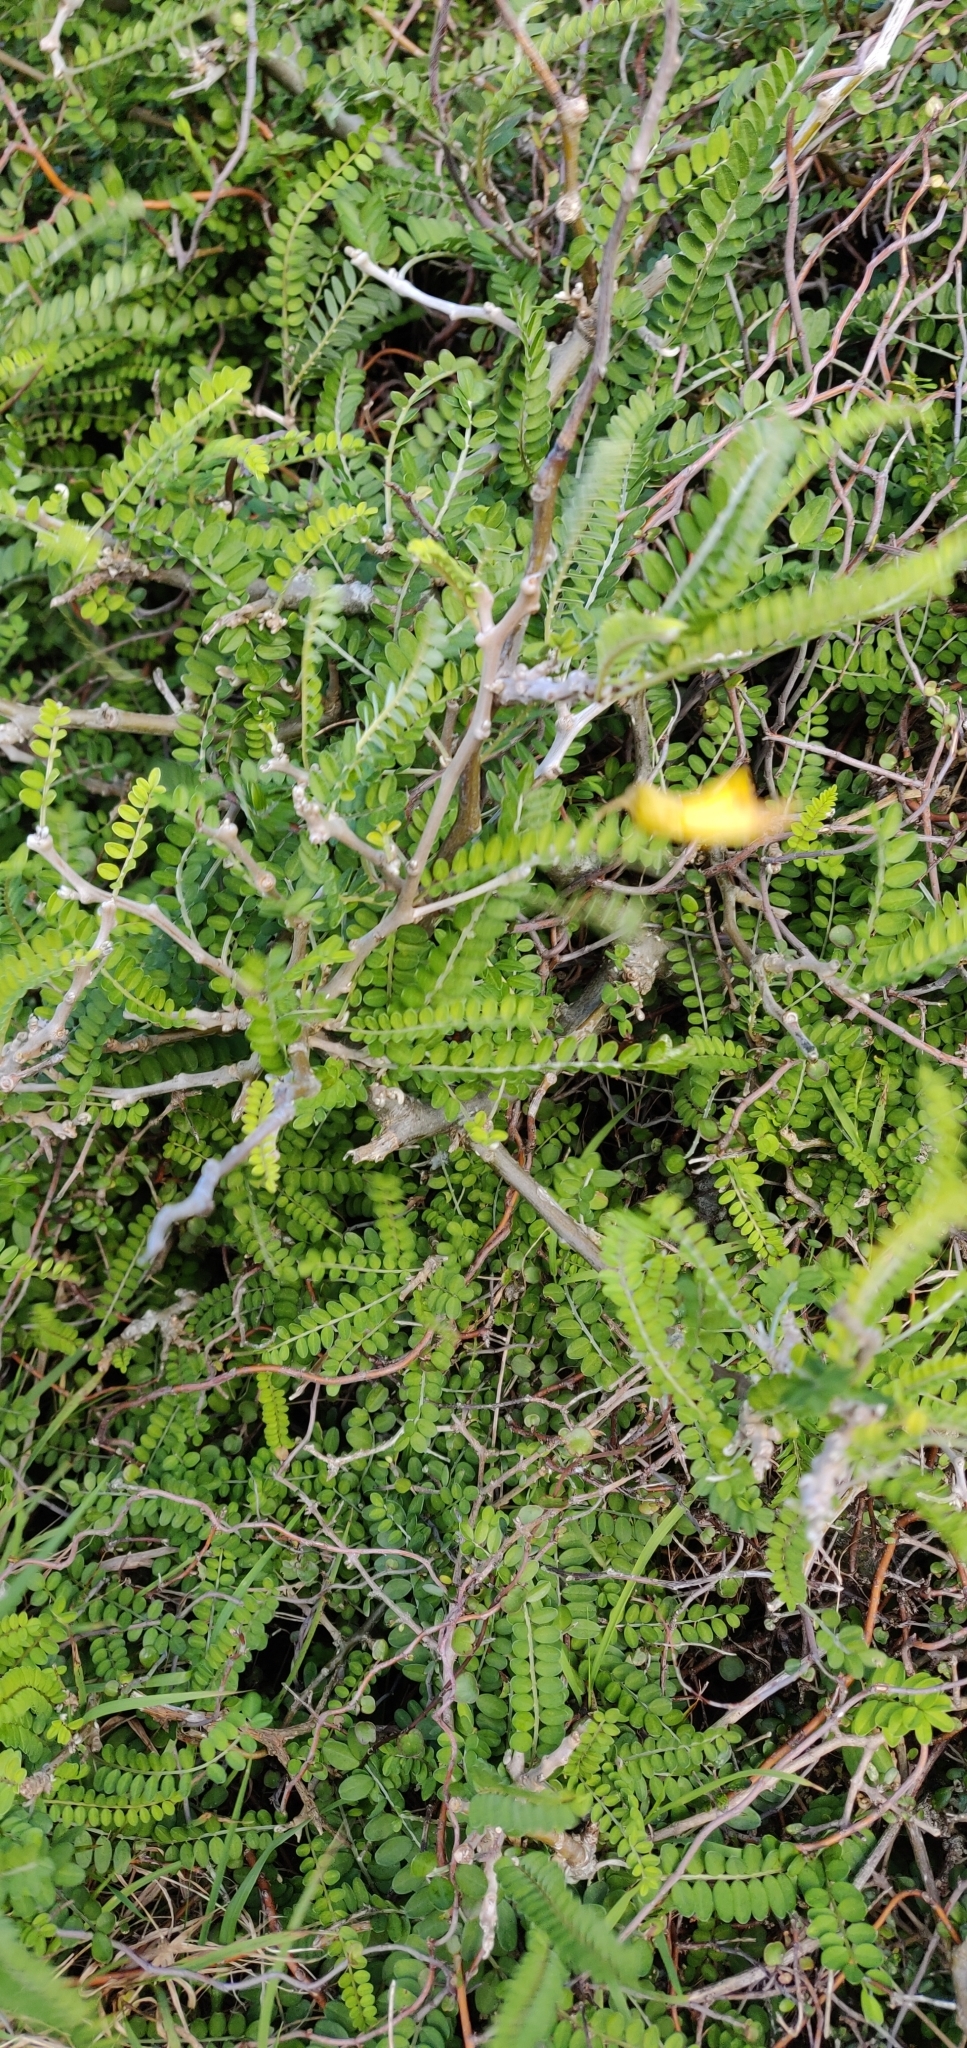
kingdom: Plantae
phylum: Tracheophyta
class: Magnoliopsida
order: Fabales
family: Fabaceae
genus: Sophora
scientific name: Sophora molloyi
